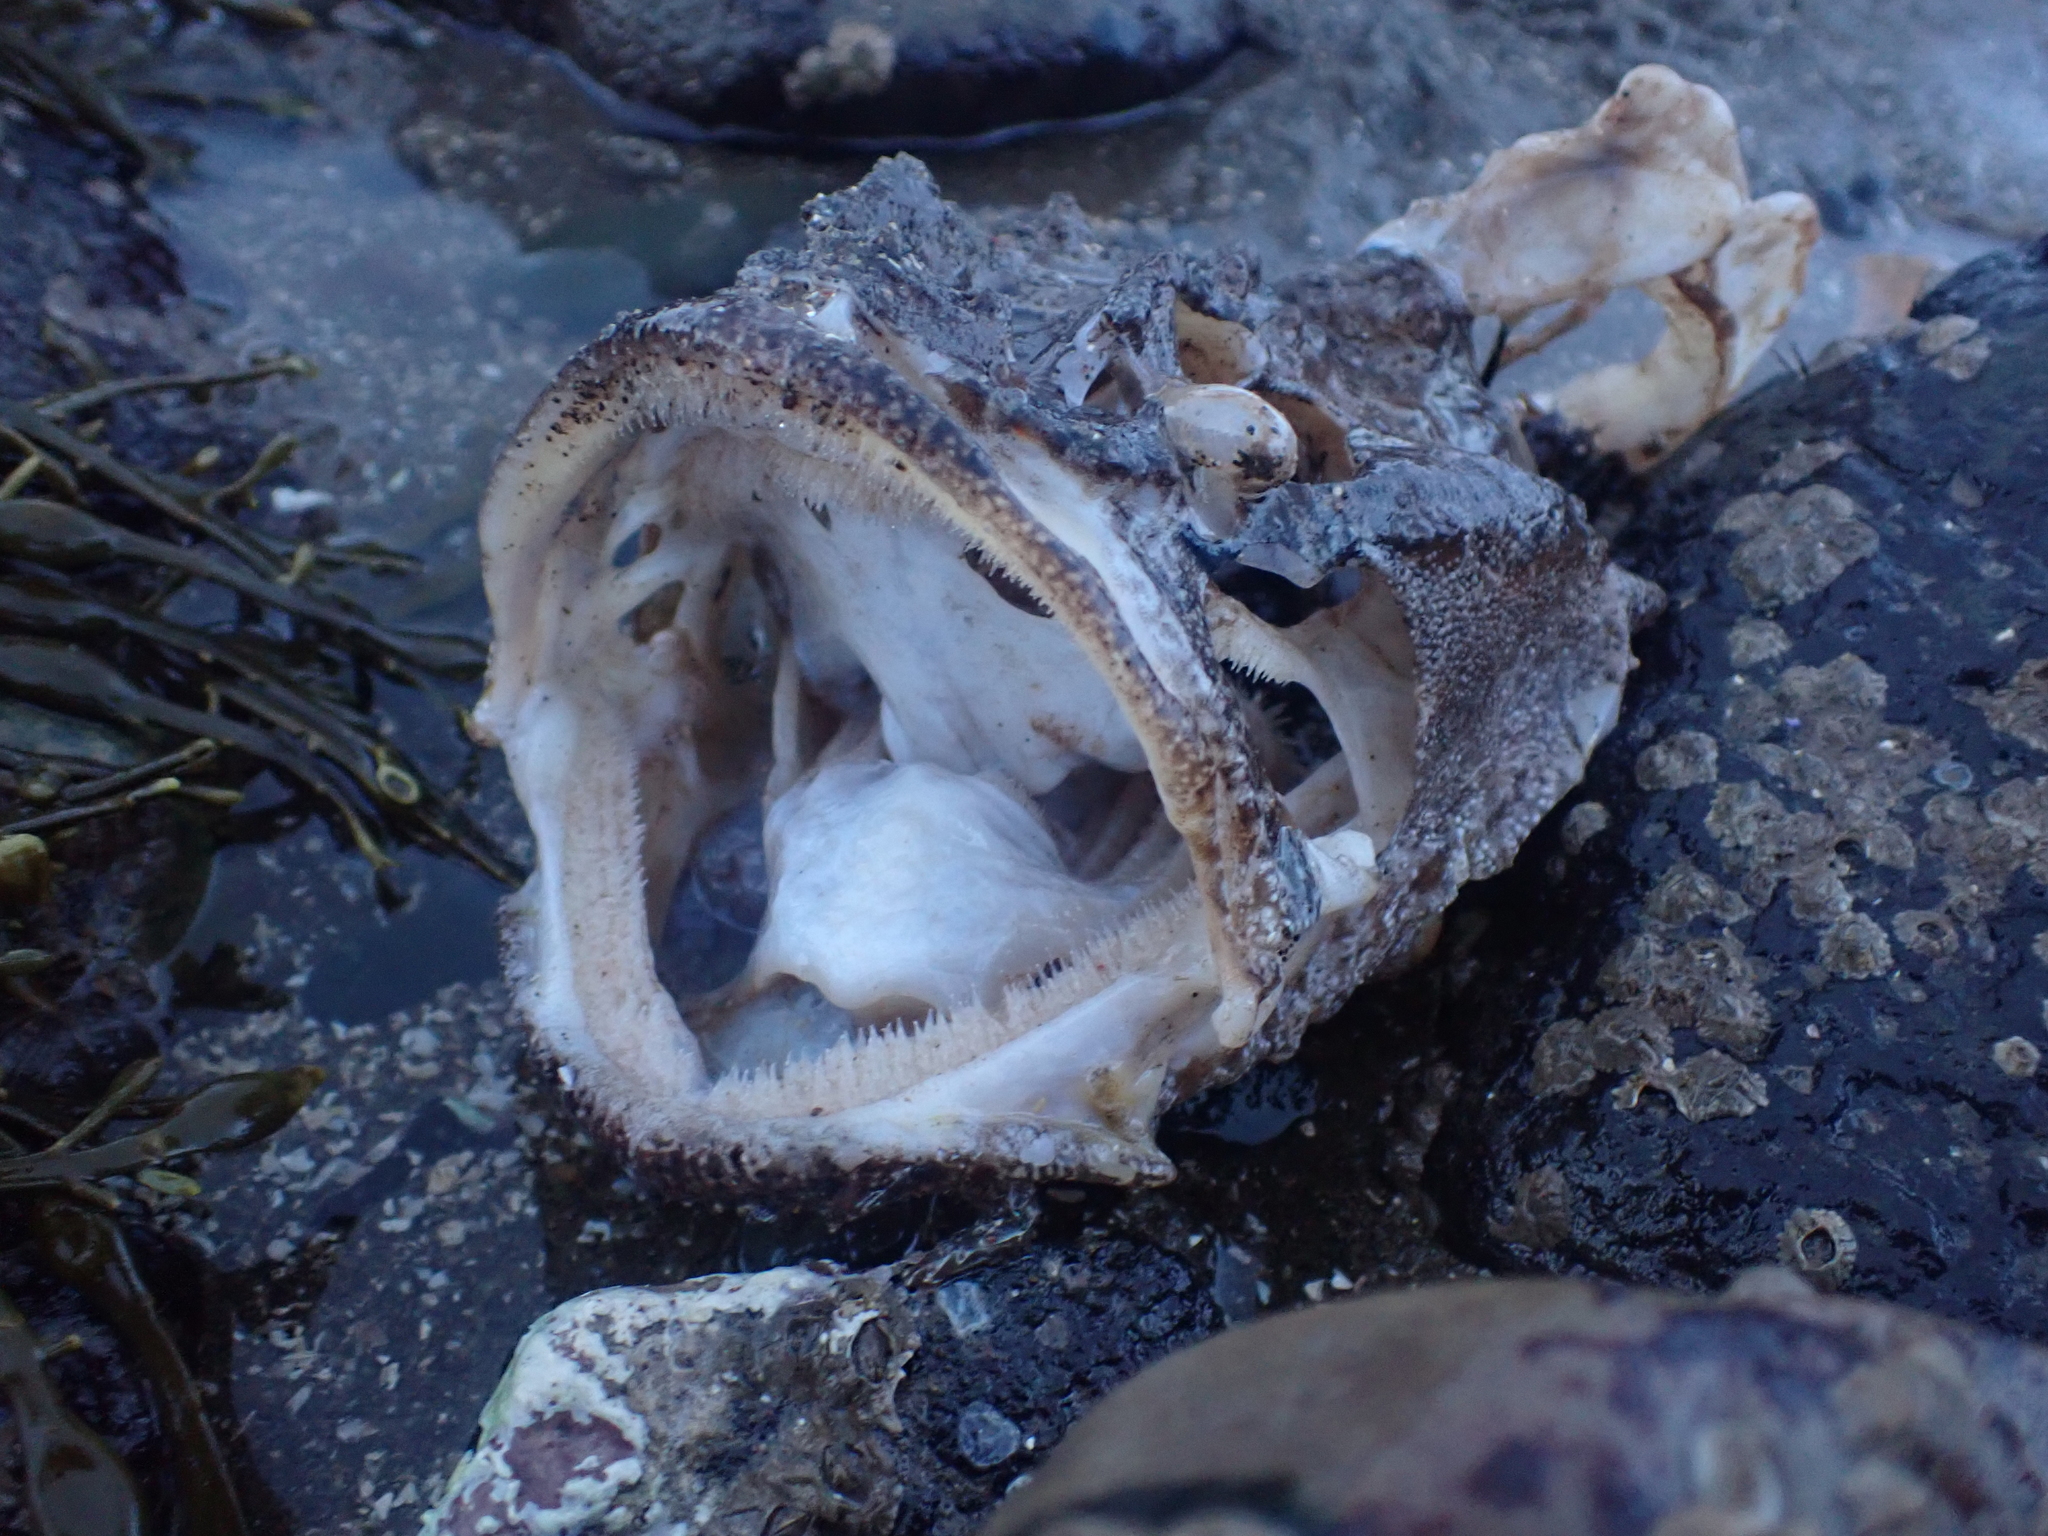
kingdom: Animalia
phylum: Chordata
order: Scorpaeniformes
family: Hemitripteridae
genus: Hemitripterus
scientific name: Hemitripterus americanus
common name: Sea raven
